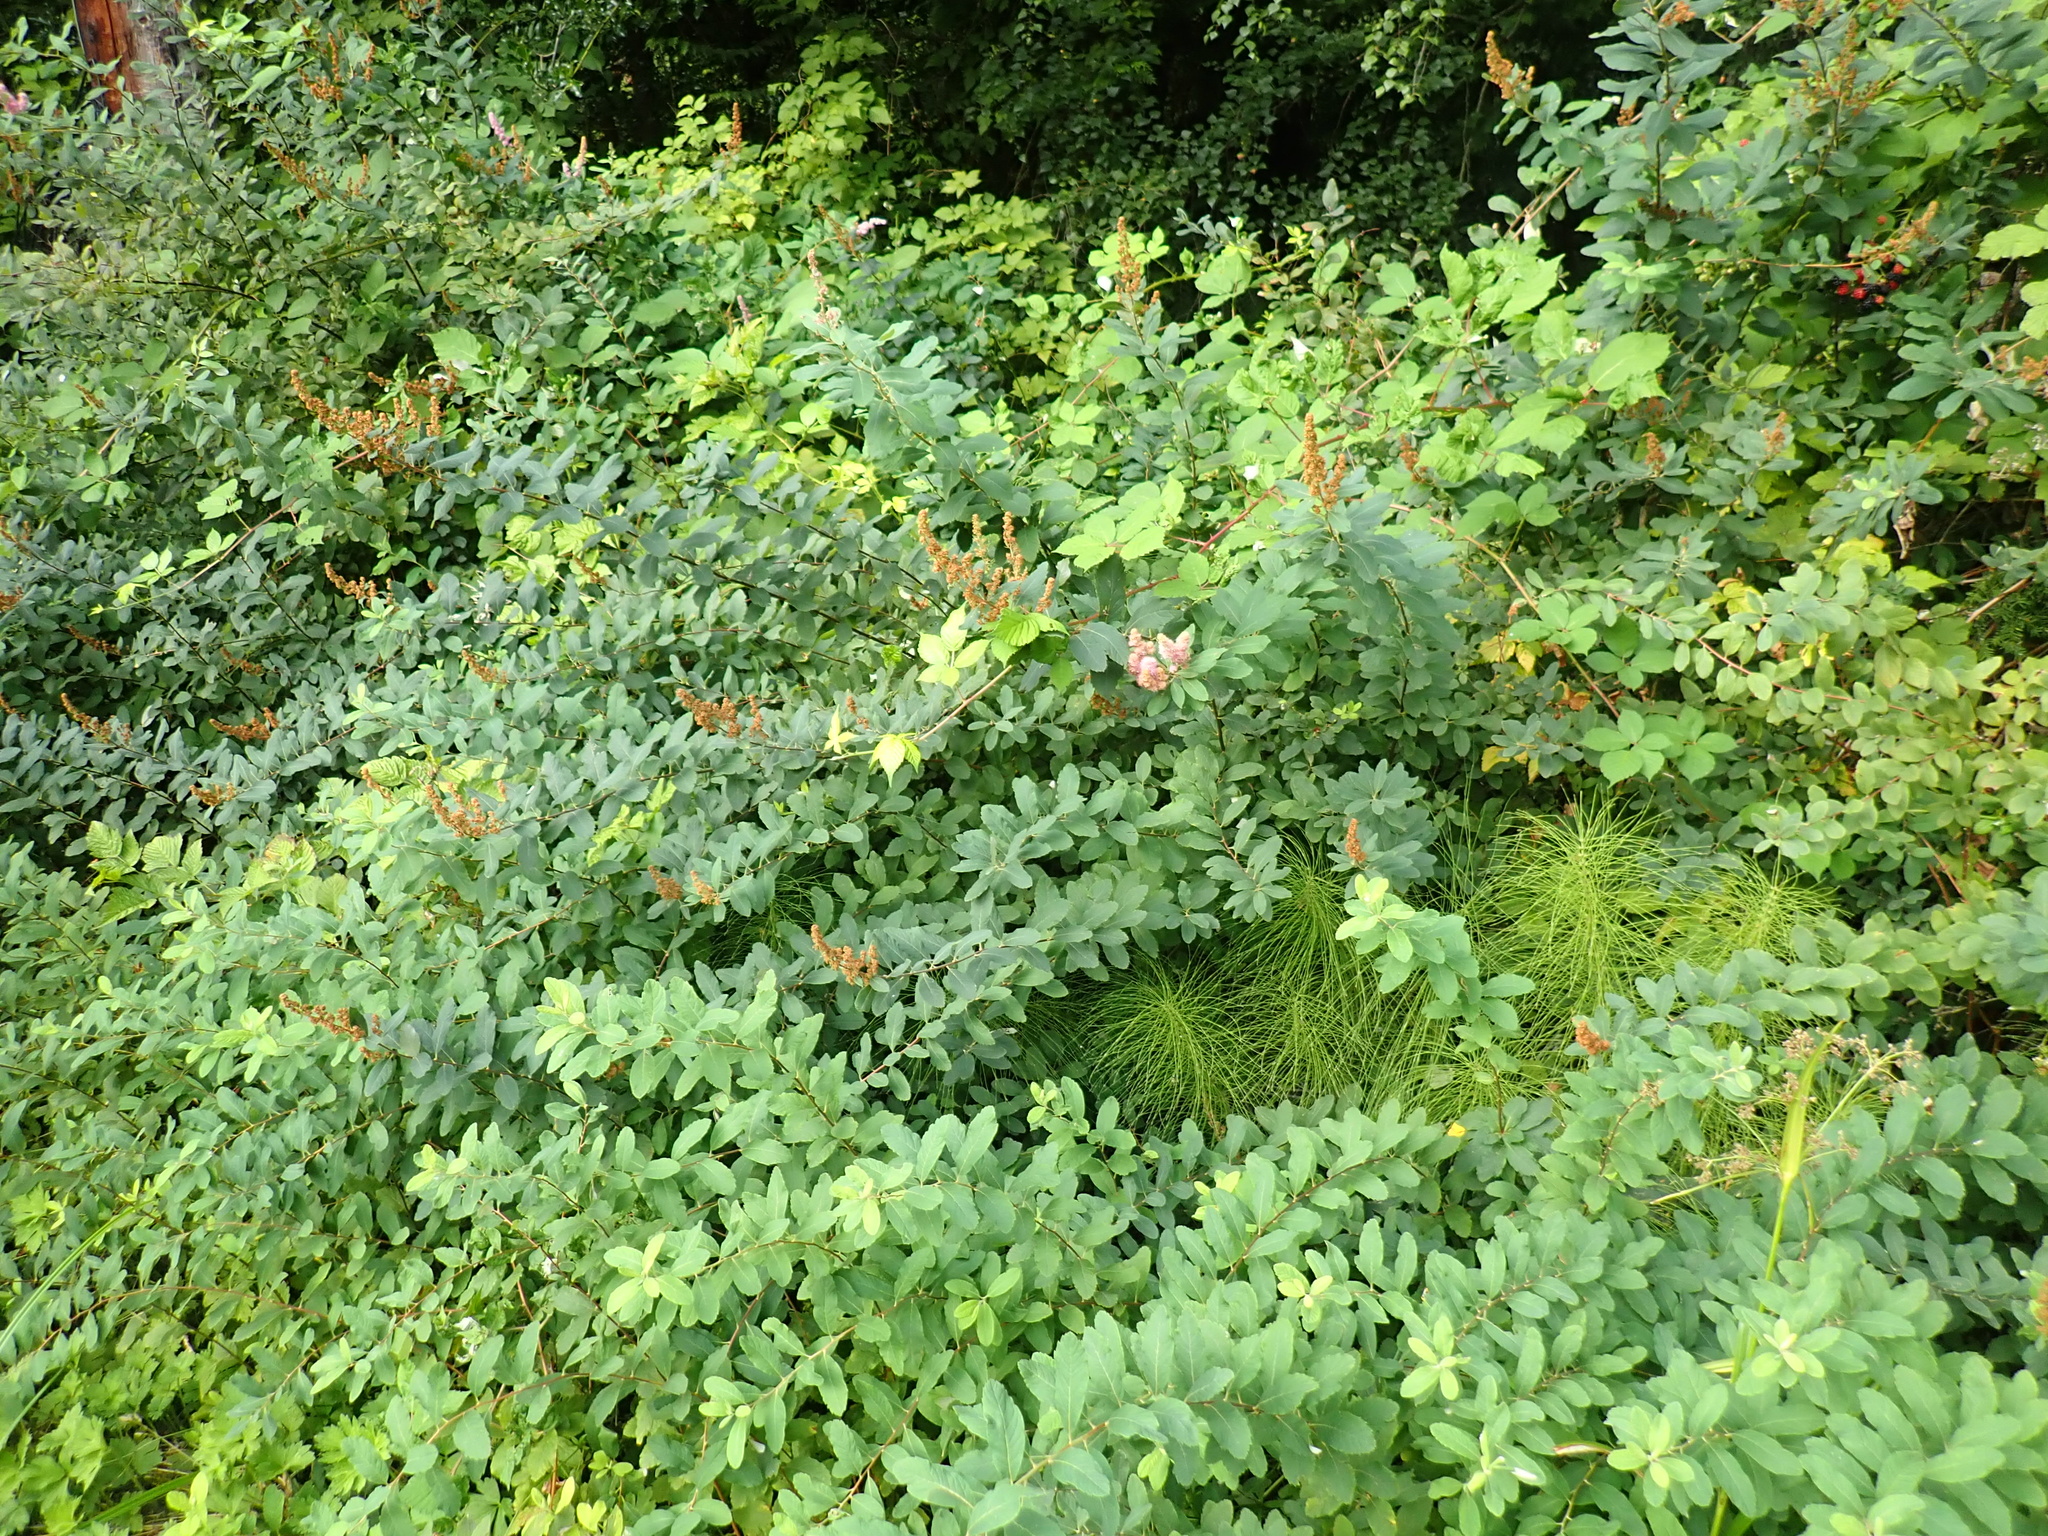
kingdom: Plantae
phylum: Tracheophyta
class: Magnoliopsida
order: Rosales
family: Rosaceae
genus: Spiraea
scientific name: Spiraea douglasii
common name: Steeplebush
